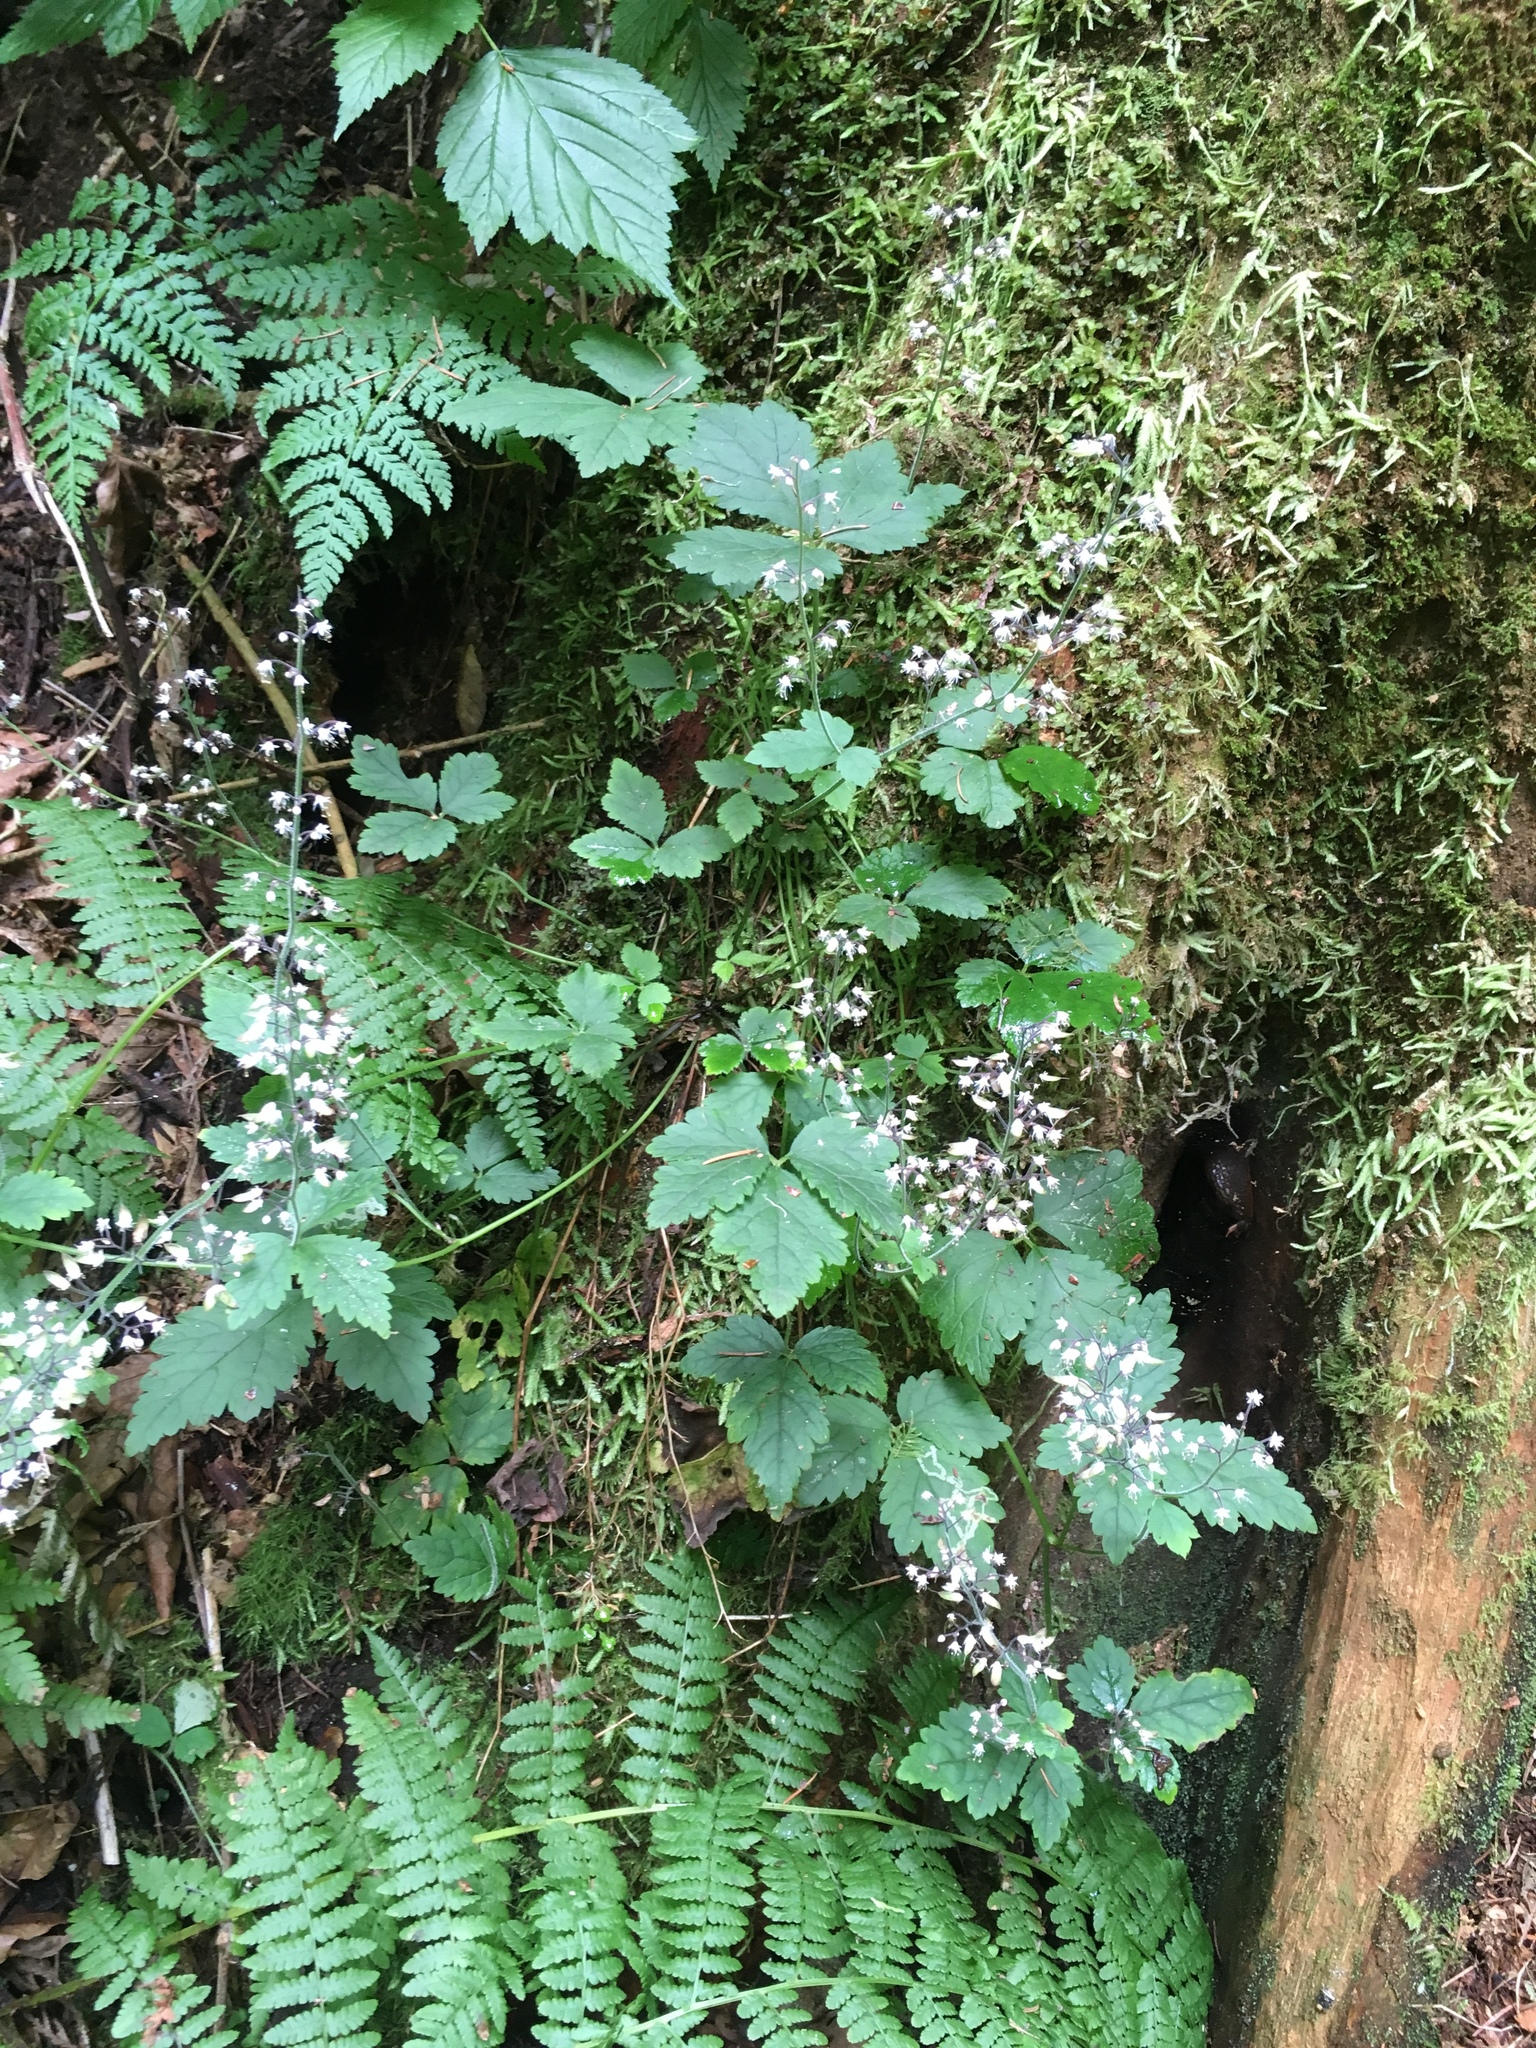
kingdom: Plantae
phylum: Tracheophyta
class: Magnoliopsida
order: Saxifragales
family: Saxifragaceae
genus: Tiarella
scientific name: Tiarella trifoliata
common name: Sugar-scoop
